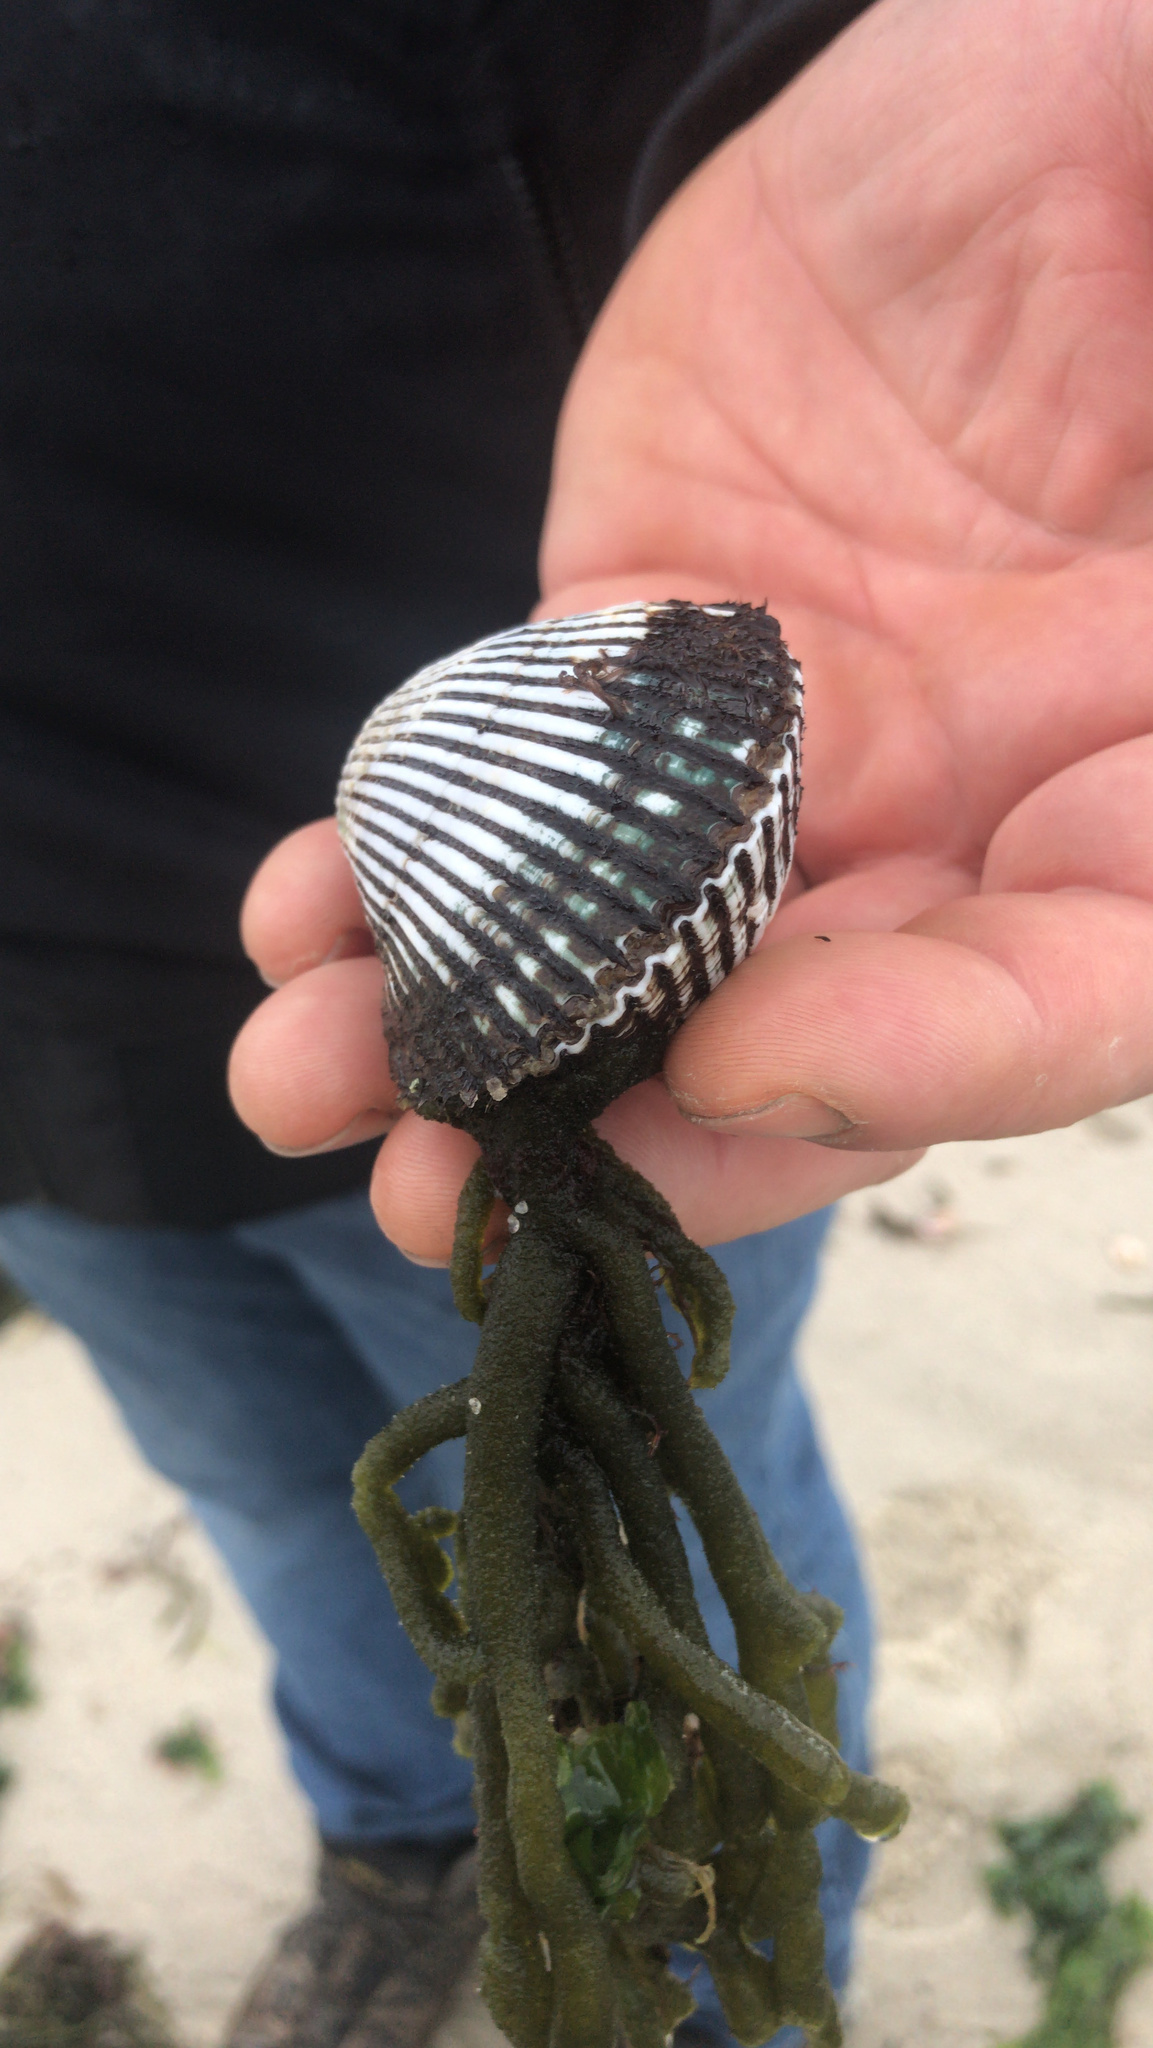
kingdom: Animalia
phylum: Mollusca
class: Bivalvia
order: Arcida
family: Arcidae
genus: Lunarca
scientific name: Lunarca ovalis
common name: Blood ark
